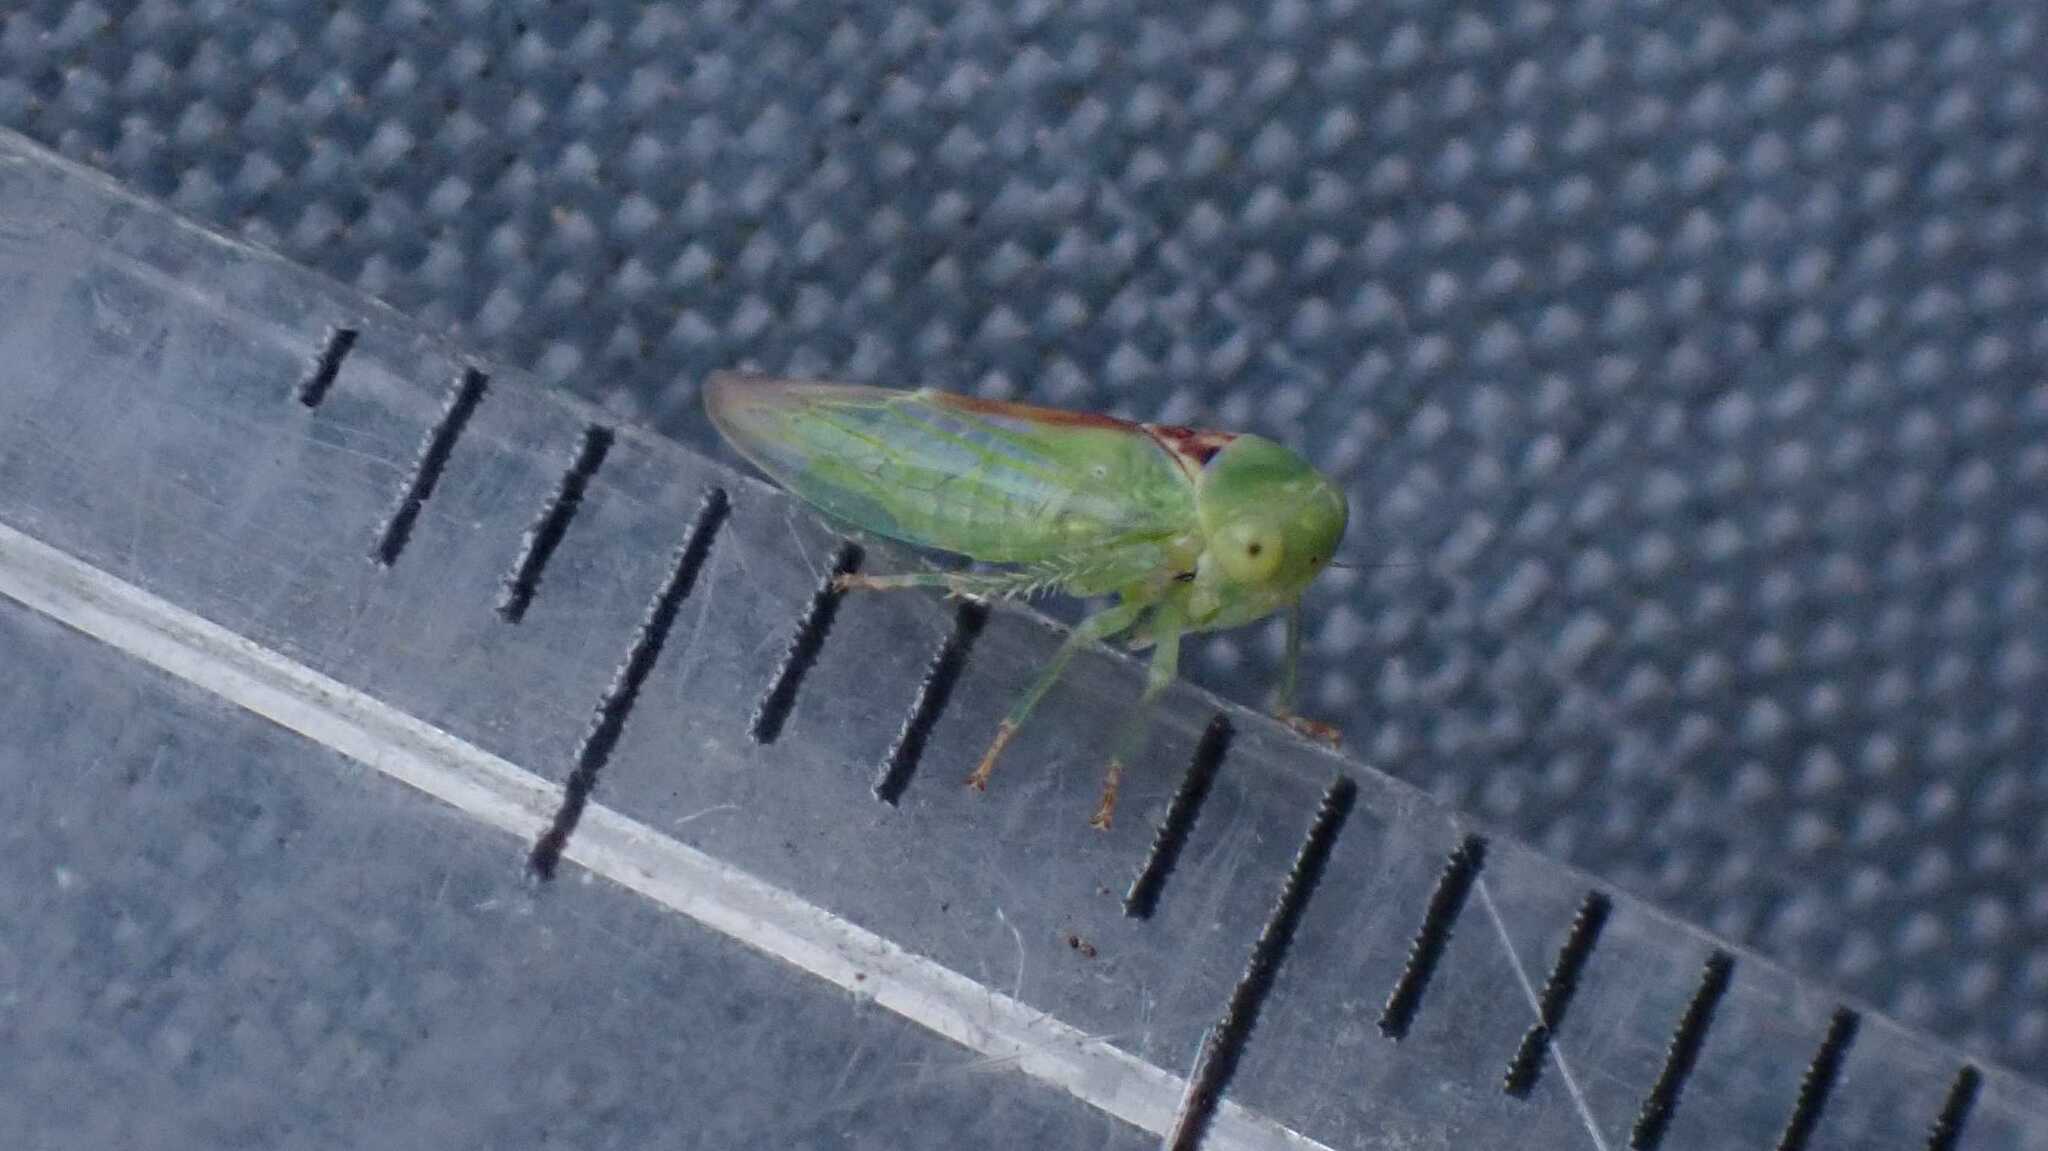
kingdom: Animalia
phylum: Arthropoda
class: Insecta
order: Hemiptera
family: Cicadellidae
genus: Viridicerus
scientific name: Viridicerus ustulatus
